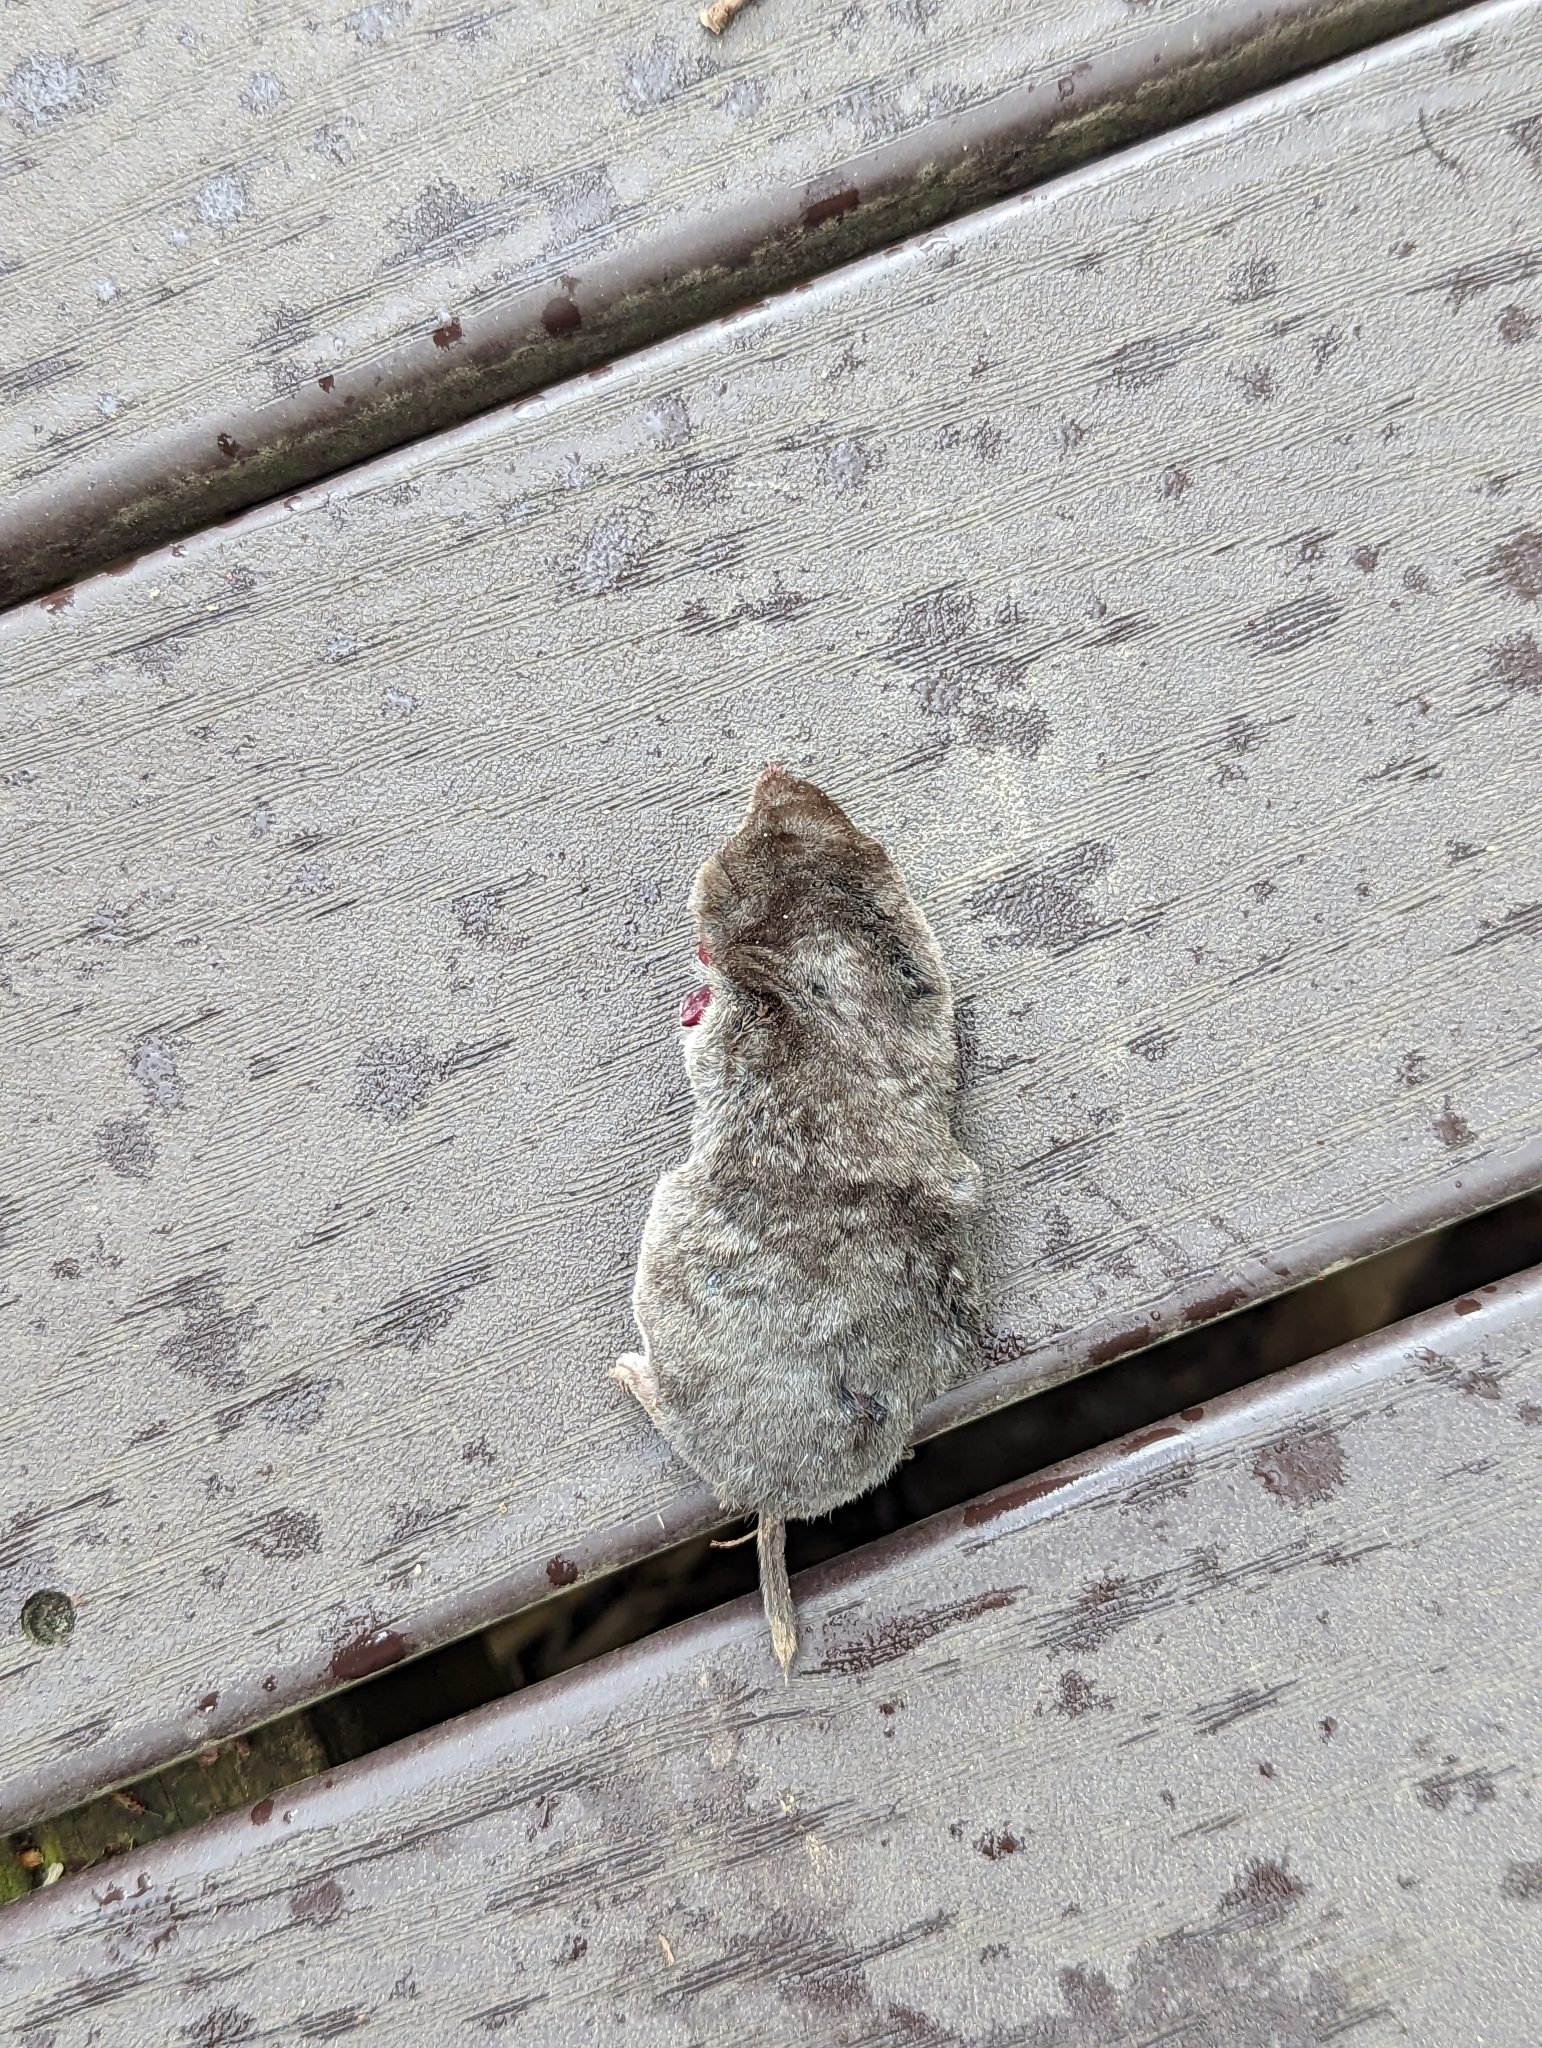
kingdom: Animalia
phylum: Chordata
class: Mammalia
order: Soricomorpha
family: Soricidae
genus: Blarina
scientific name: Blarina brevicauda
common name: Northern short-tailed shrew
